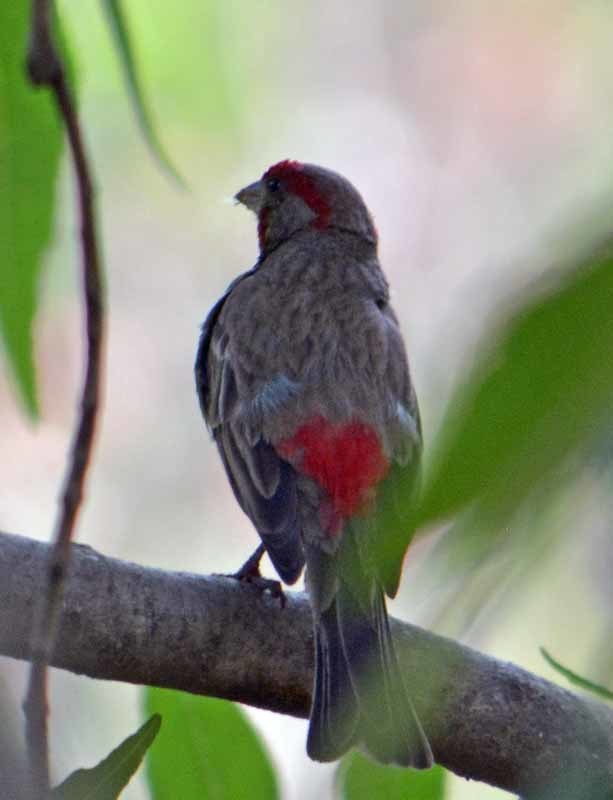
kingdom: Animalia
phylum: Chordata
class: Aves
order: Passeriformes
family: Fringillidae
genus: Haemorhous
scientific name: Haemorhous mexicanus
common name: House finch
